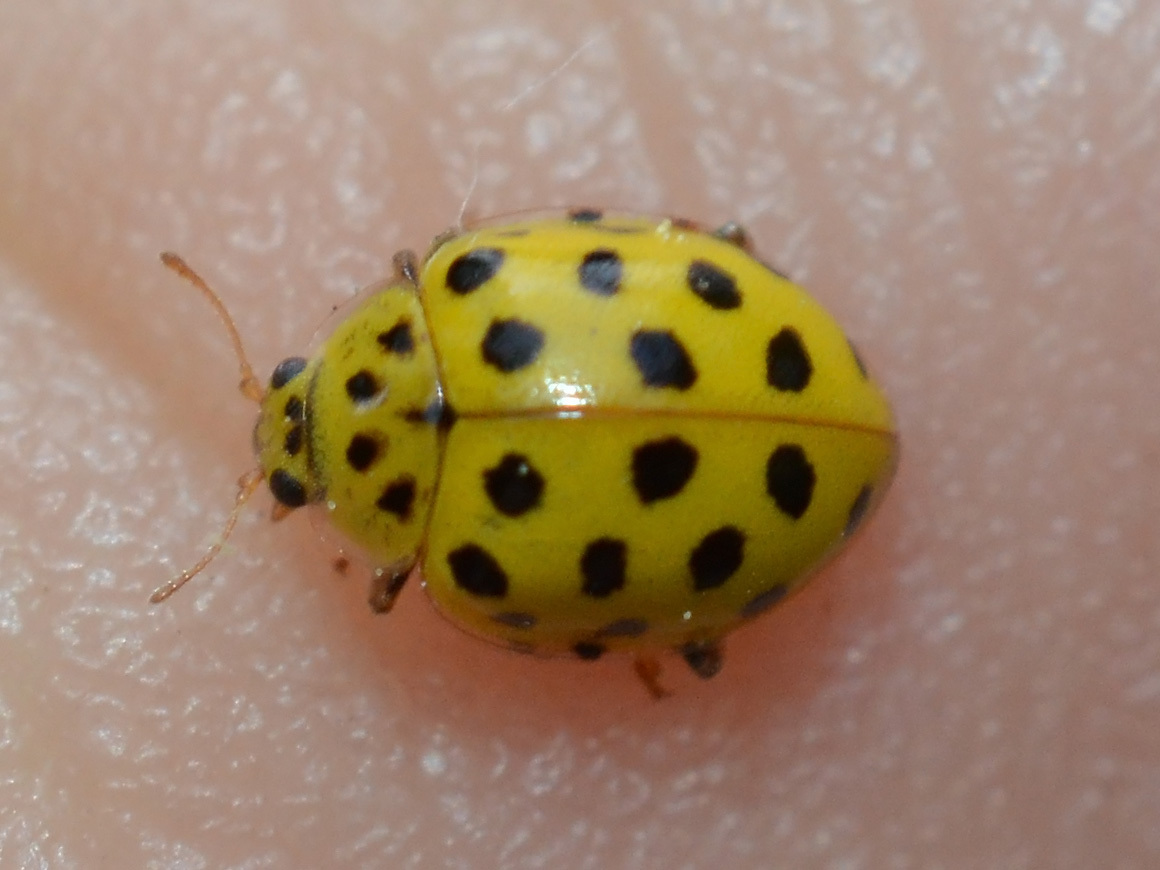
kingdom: Animalia
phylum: Arthropoda
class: Insecta
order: Coleoptera
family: Coccinellidae
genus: Psyllobora
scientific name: Psyllobora vigintiduopunctata
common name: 22-spot ladybird
